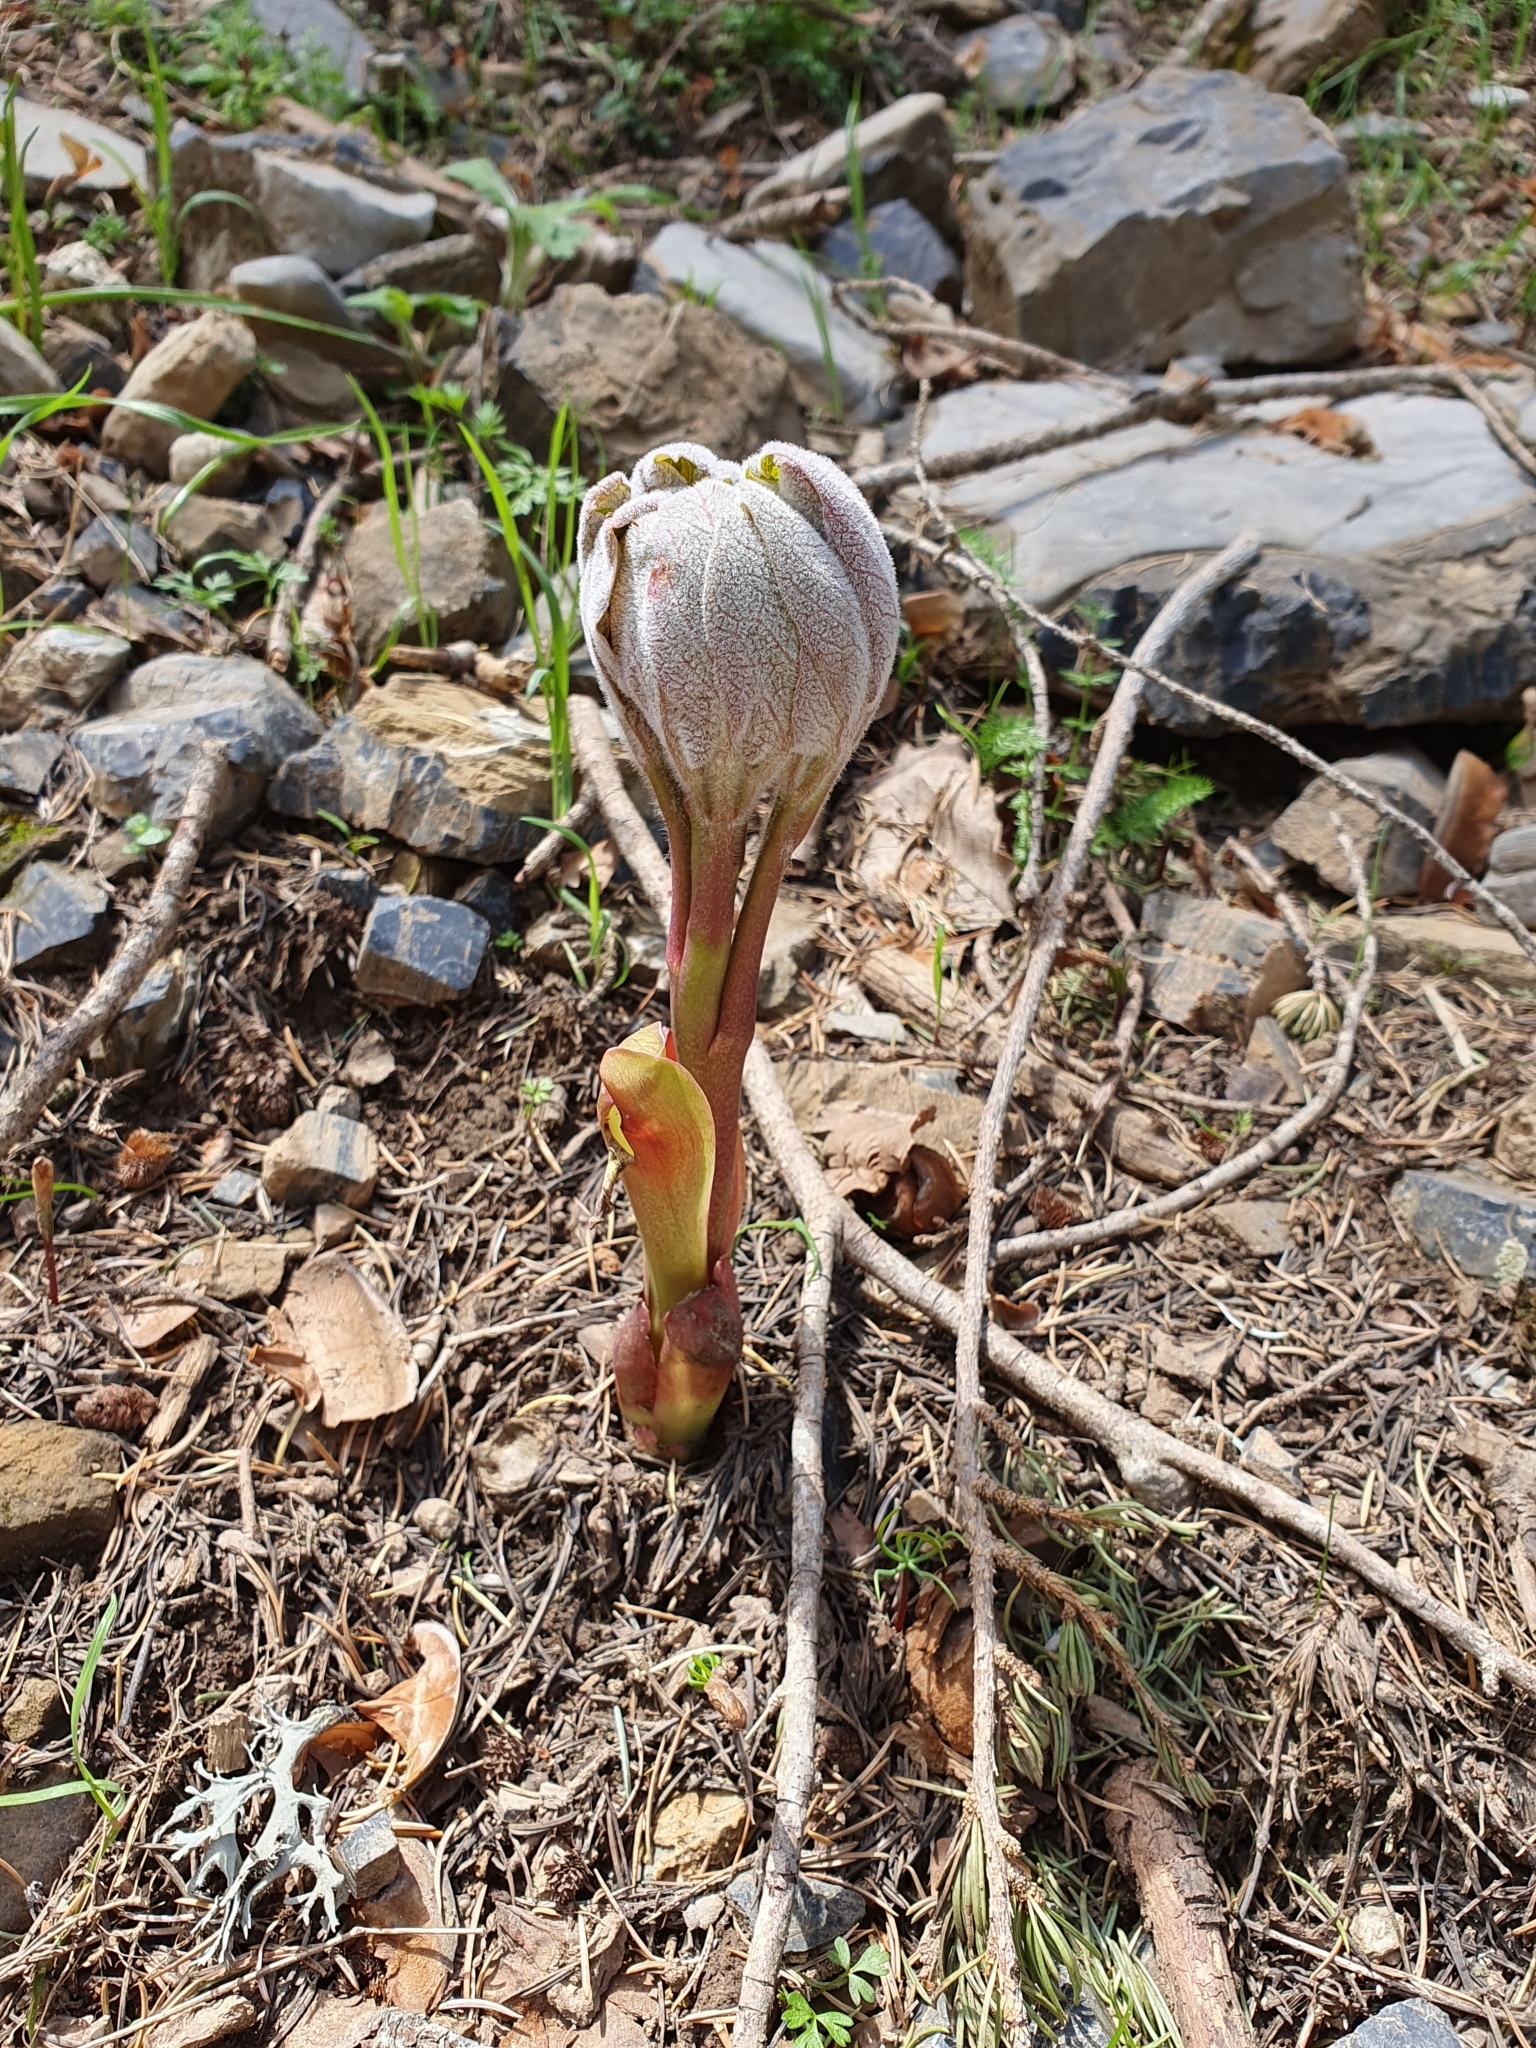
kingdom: Plantae
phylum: Tracheophyta
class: Magnoliopsida
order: Saxifragales
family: Paeoniaceae
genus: Paeonia
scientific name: Paeonia algeriensis
